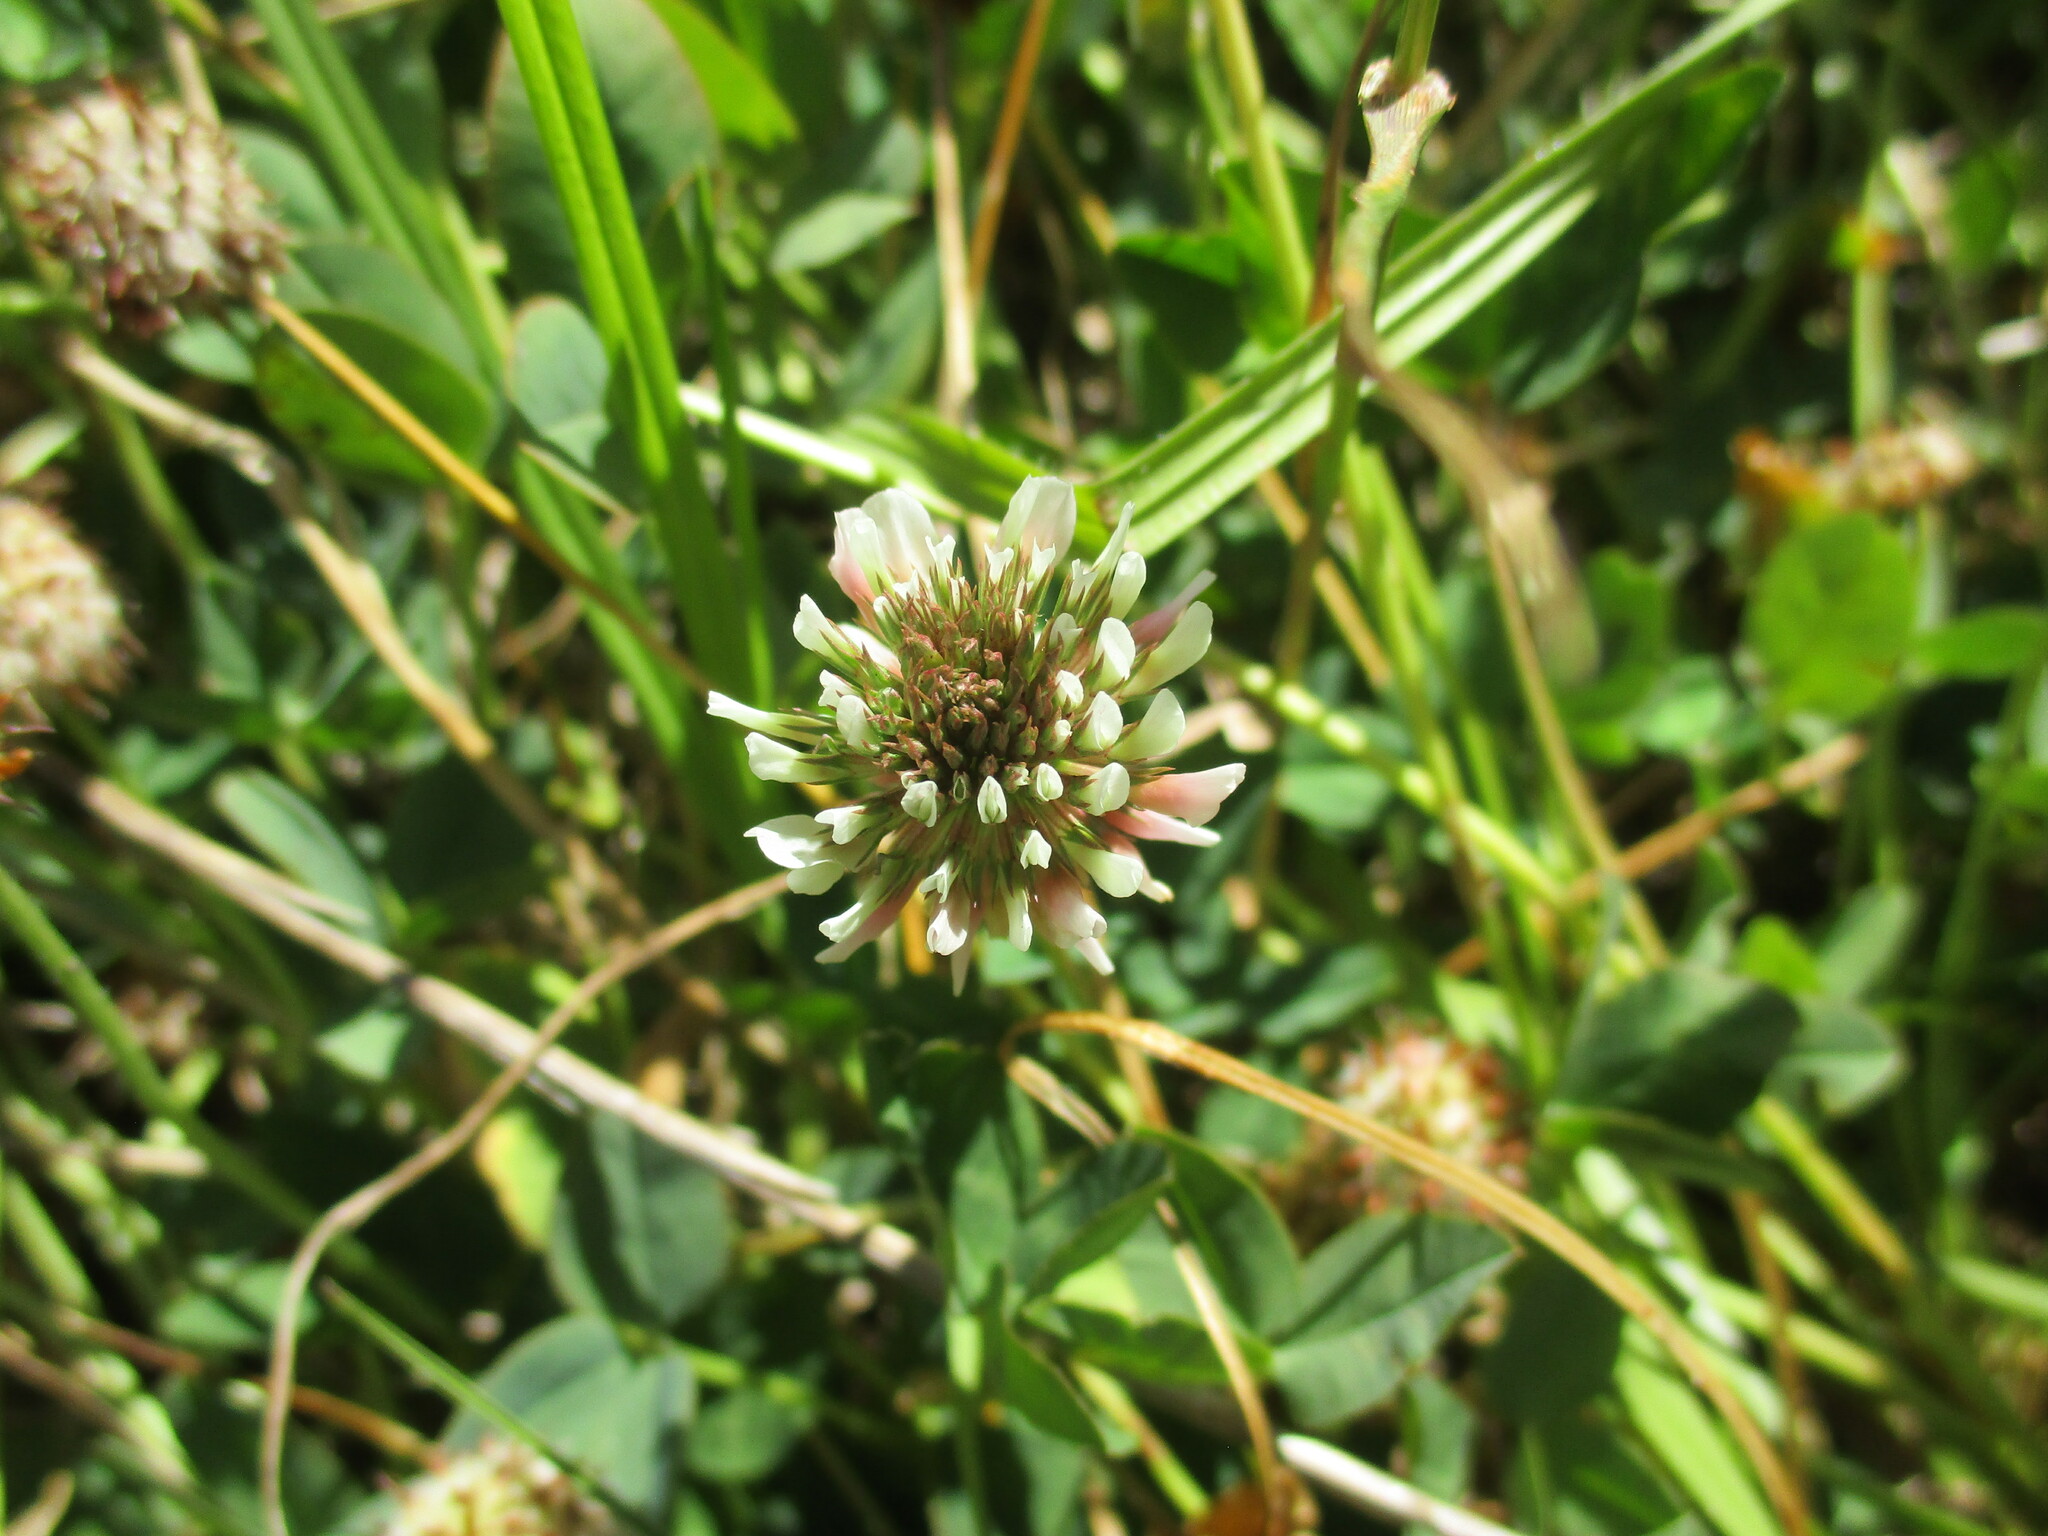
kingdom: Plantae
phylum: Tracheophyta
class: Magnoliopsida
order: Fabales
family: Fabaceae
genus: Trifolium
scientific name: Trifolium repens
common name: White clover
